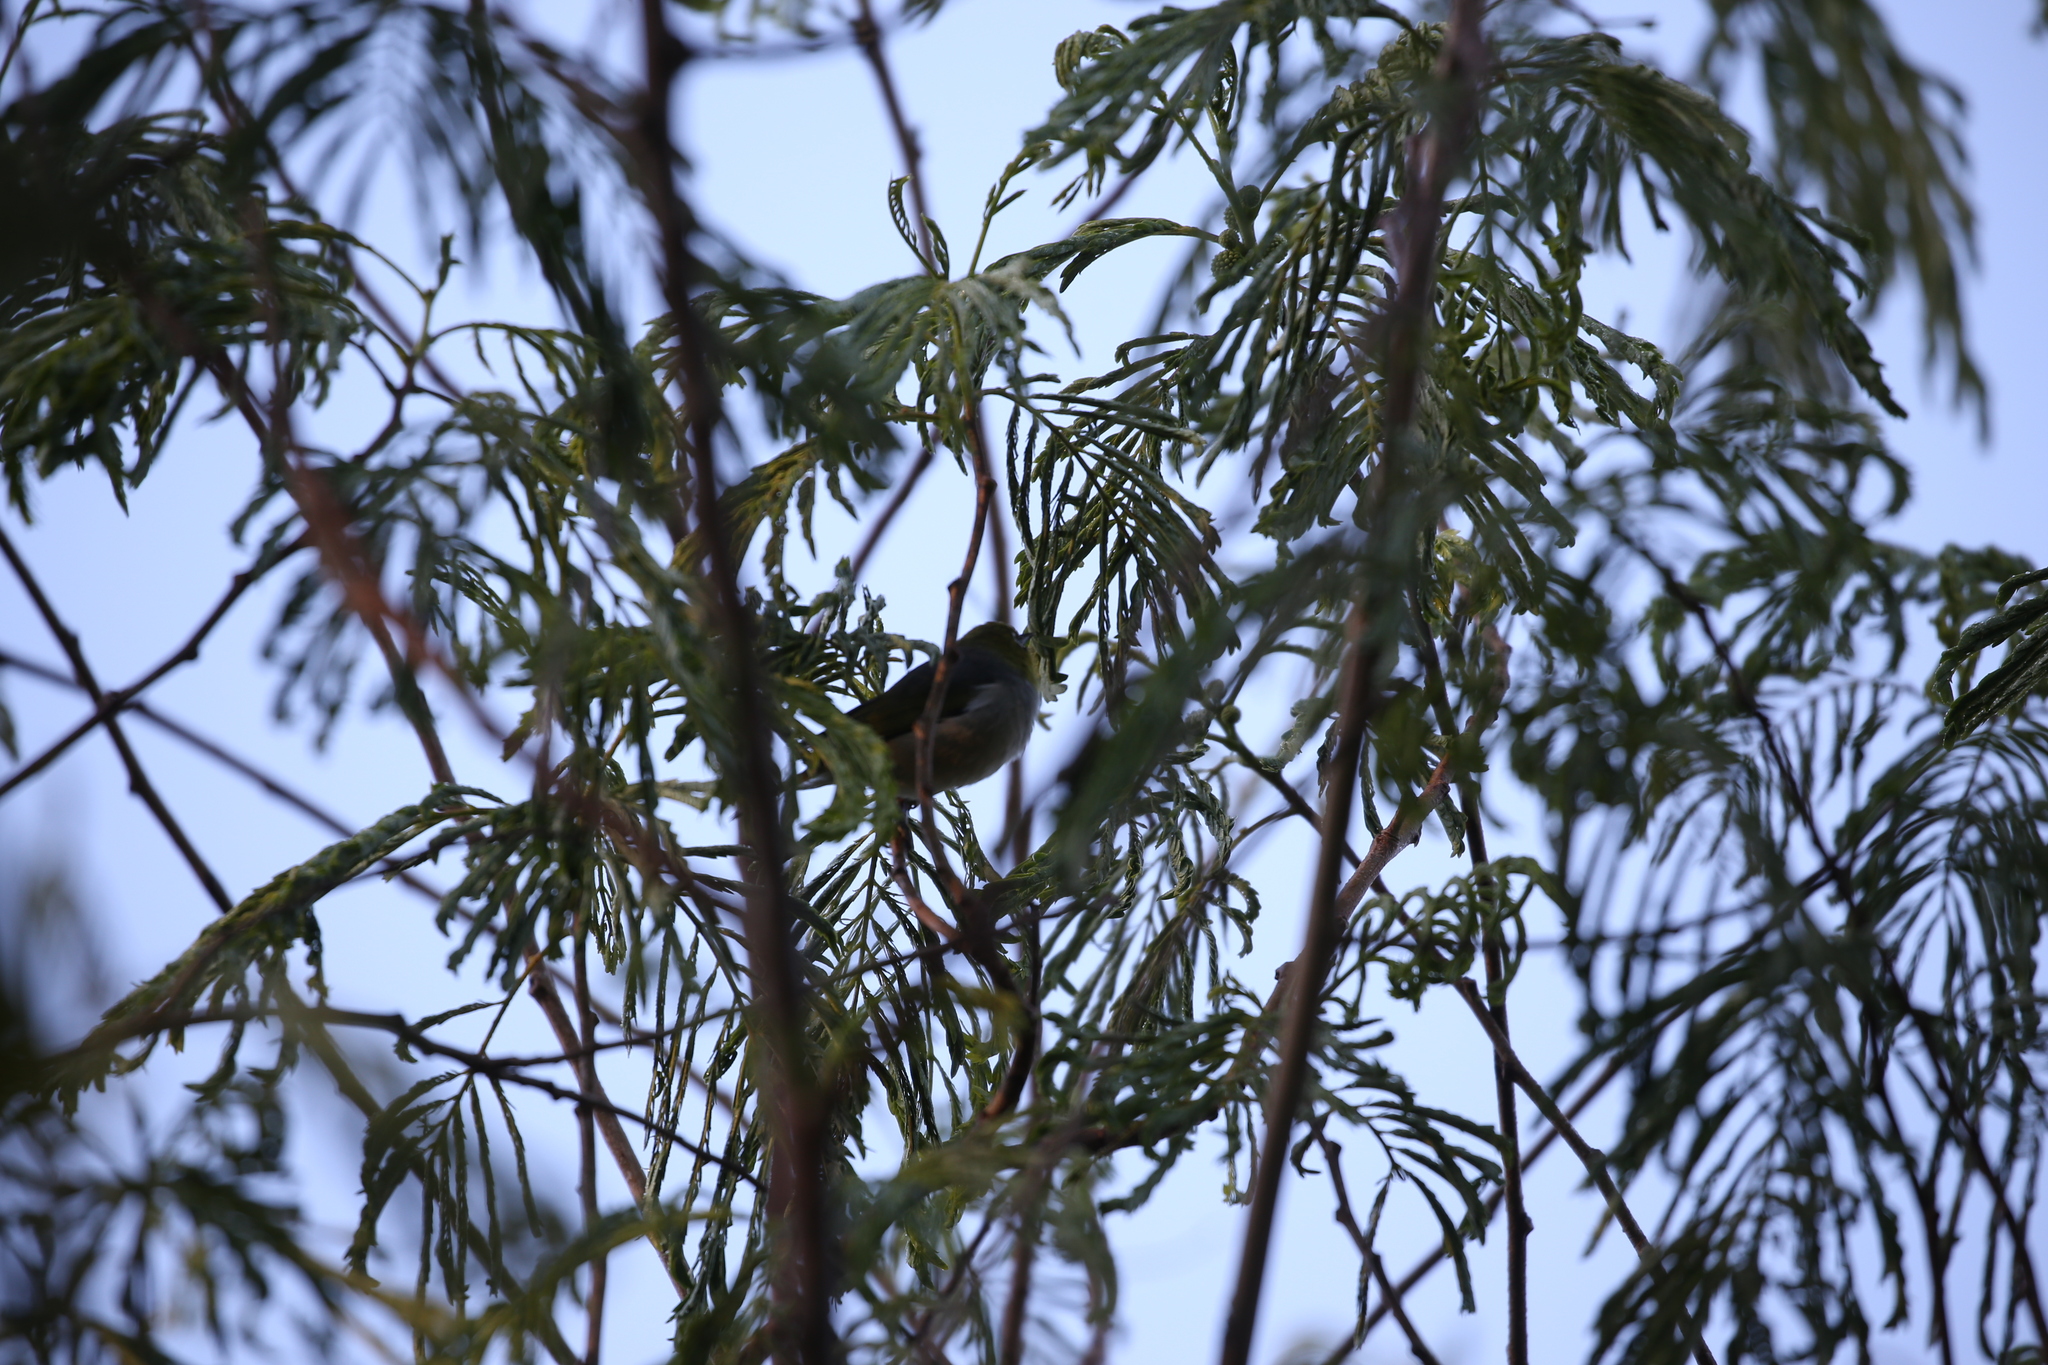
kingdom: Animalia
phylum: Chordata
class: Aves
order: Passeriformes
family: Zosteropidae
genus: Zosterops
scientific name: Zosterops lateralis
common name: Silvereye
